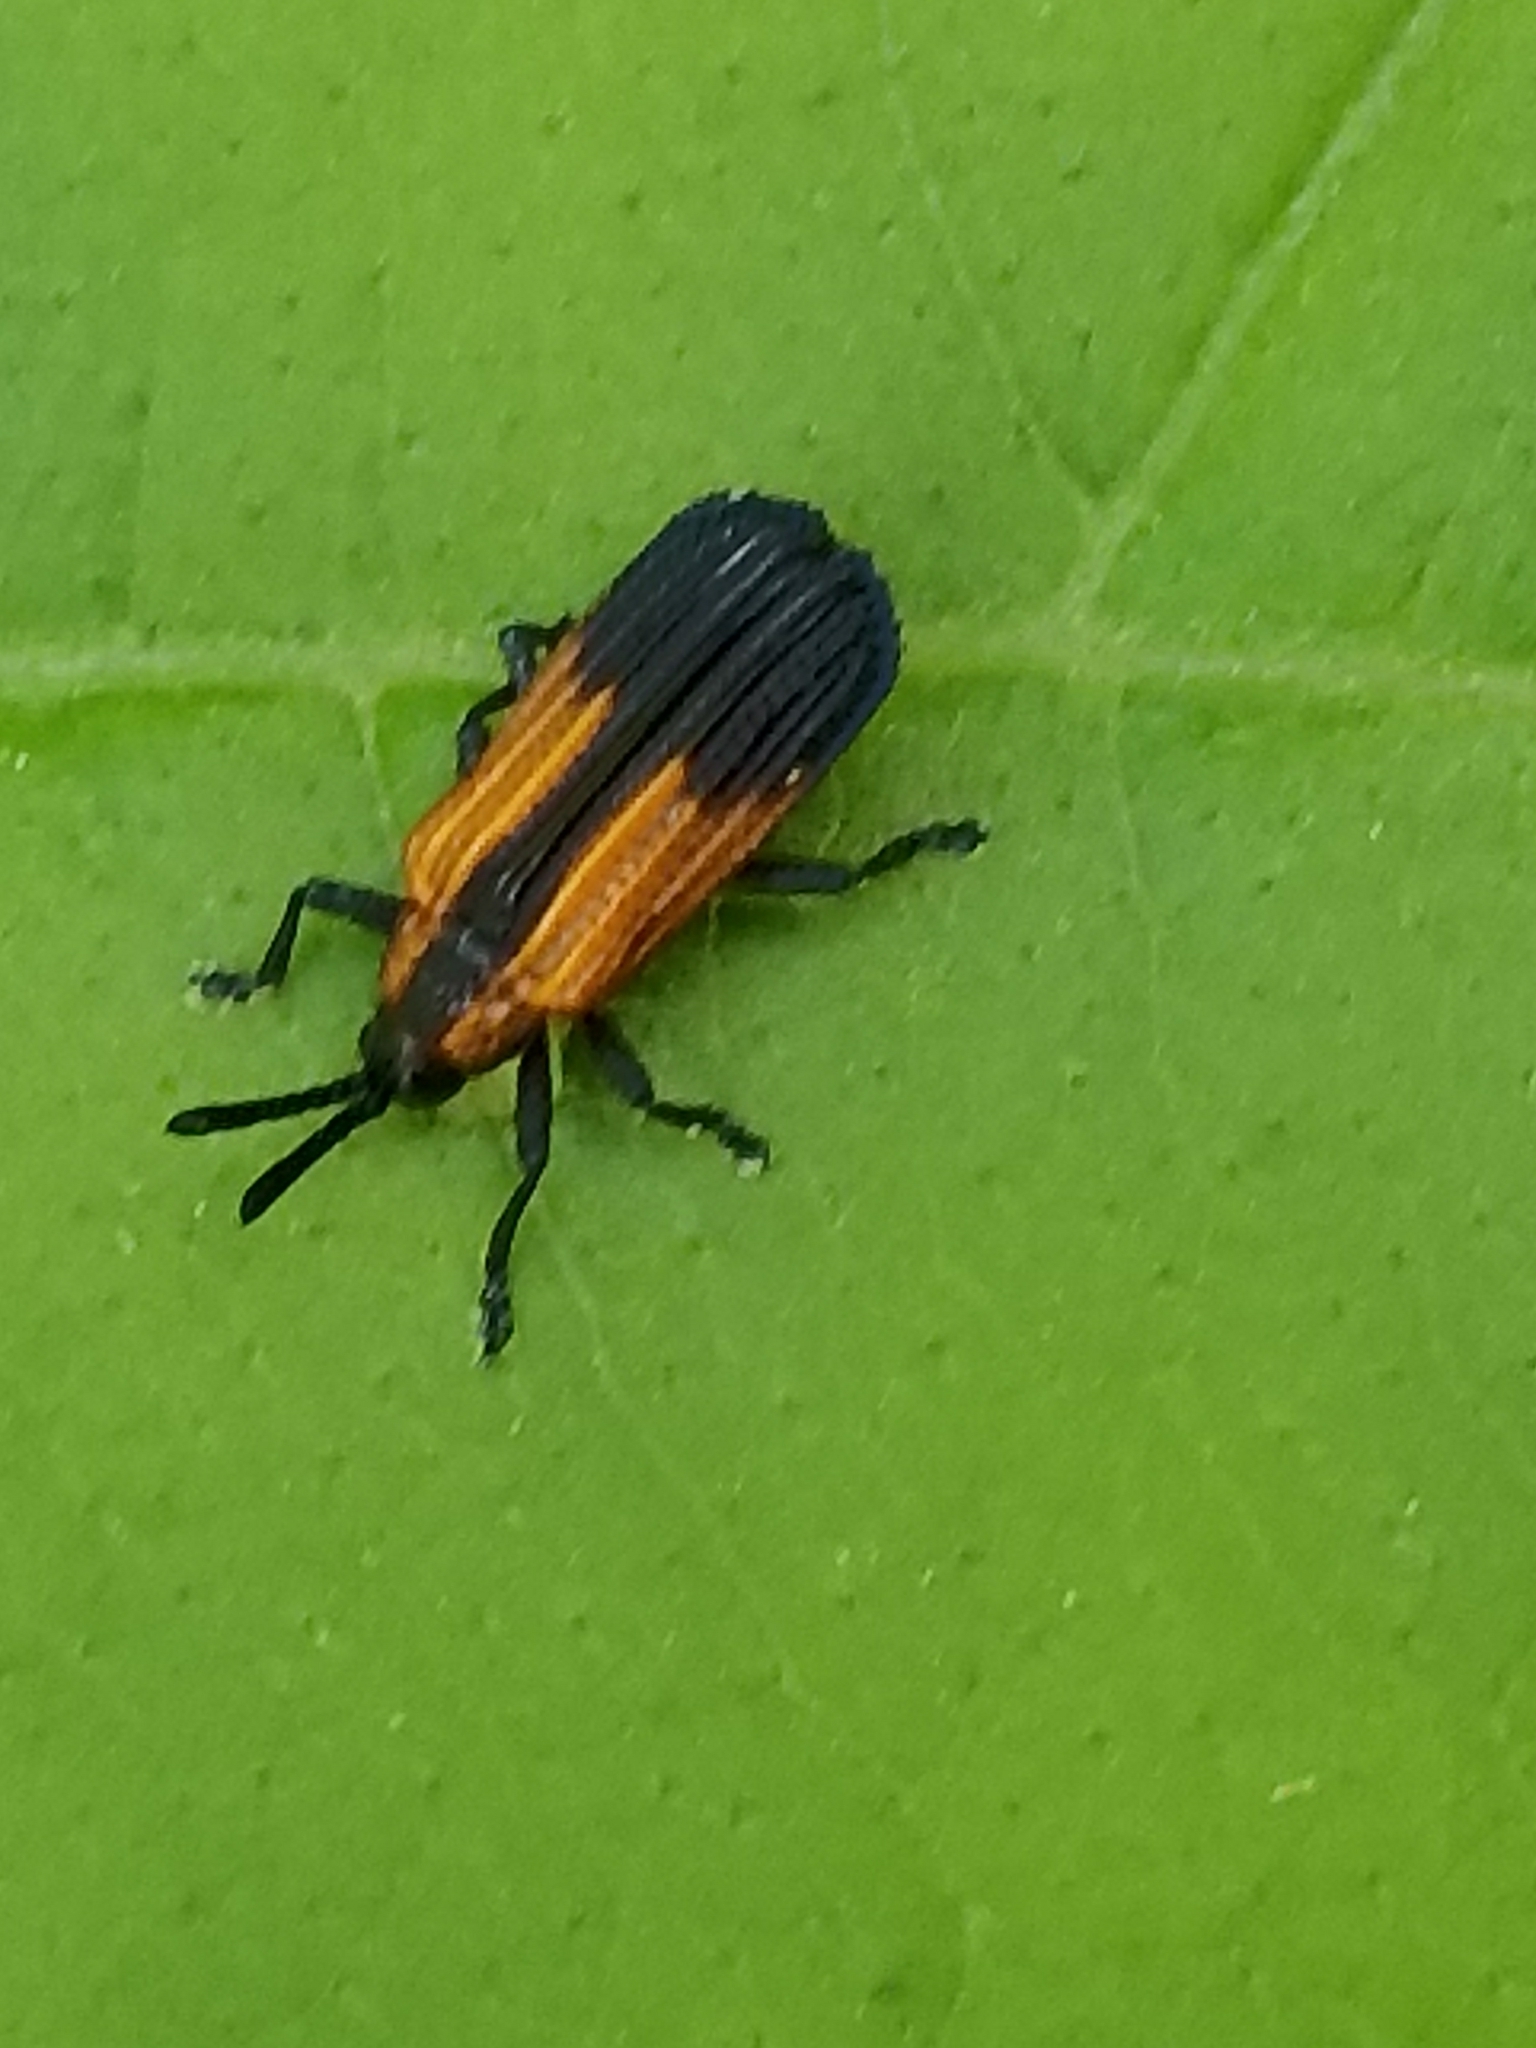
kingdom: Animalia
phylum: Arthropoda
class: Insecta
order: Coleoptera
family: Chrysomelidae
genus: Pentispa
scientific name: Pentispa melanura
